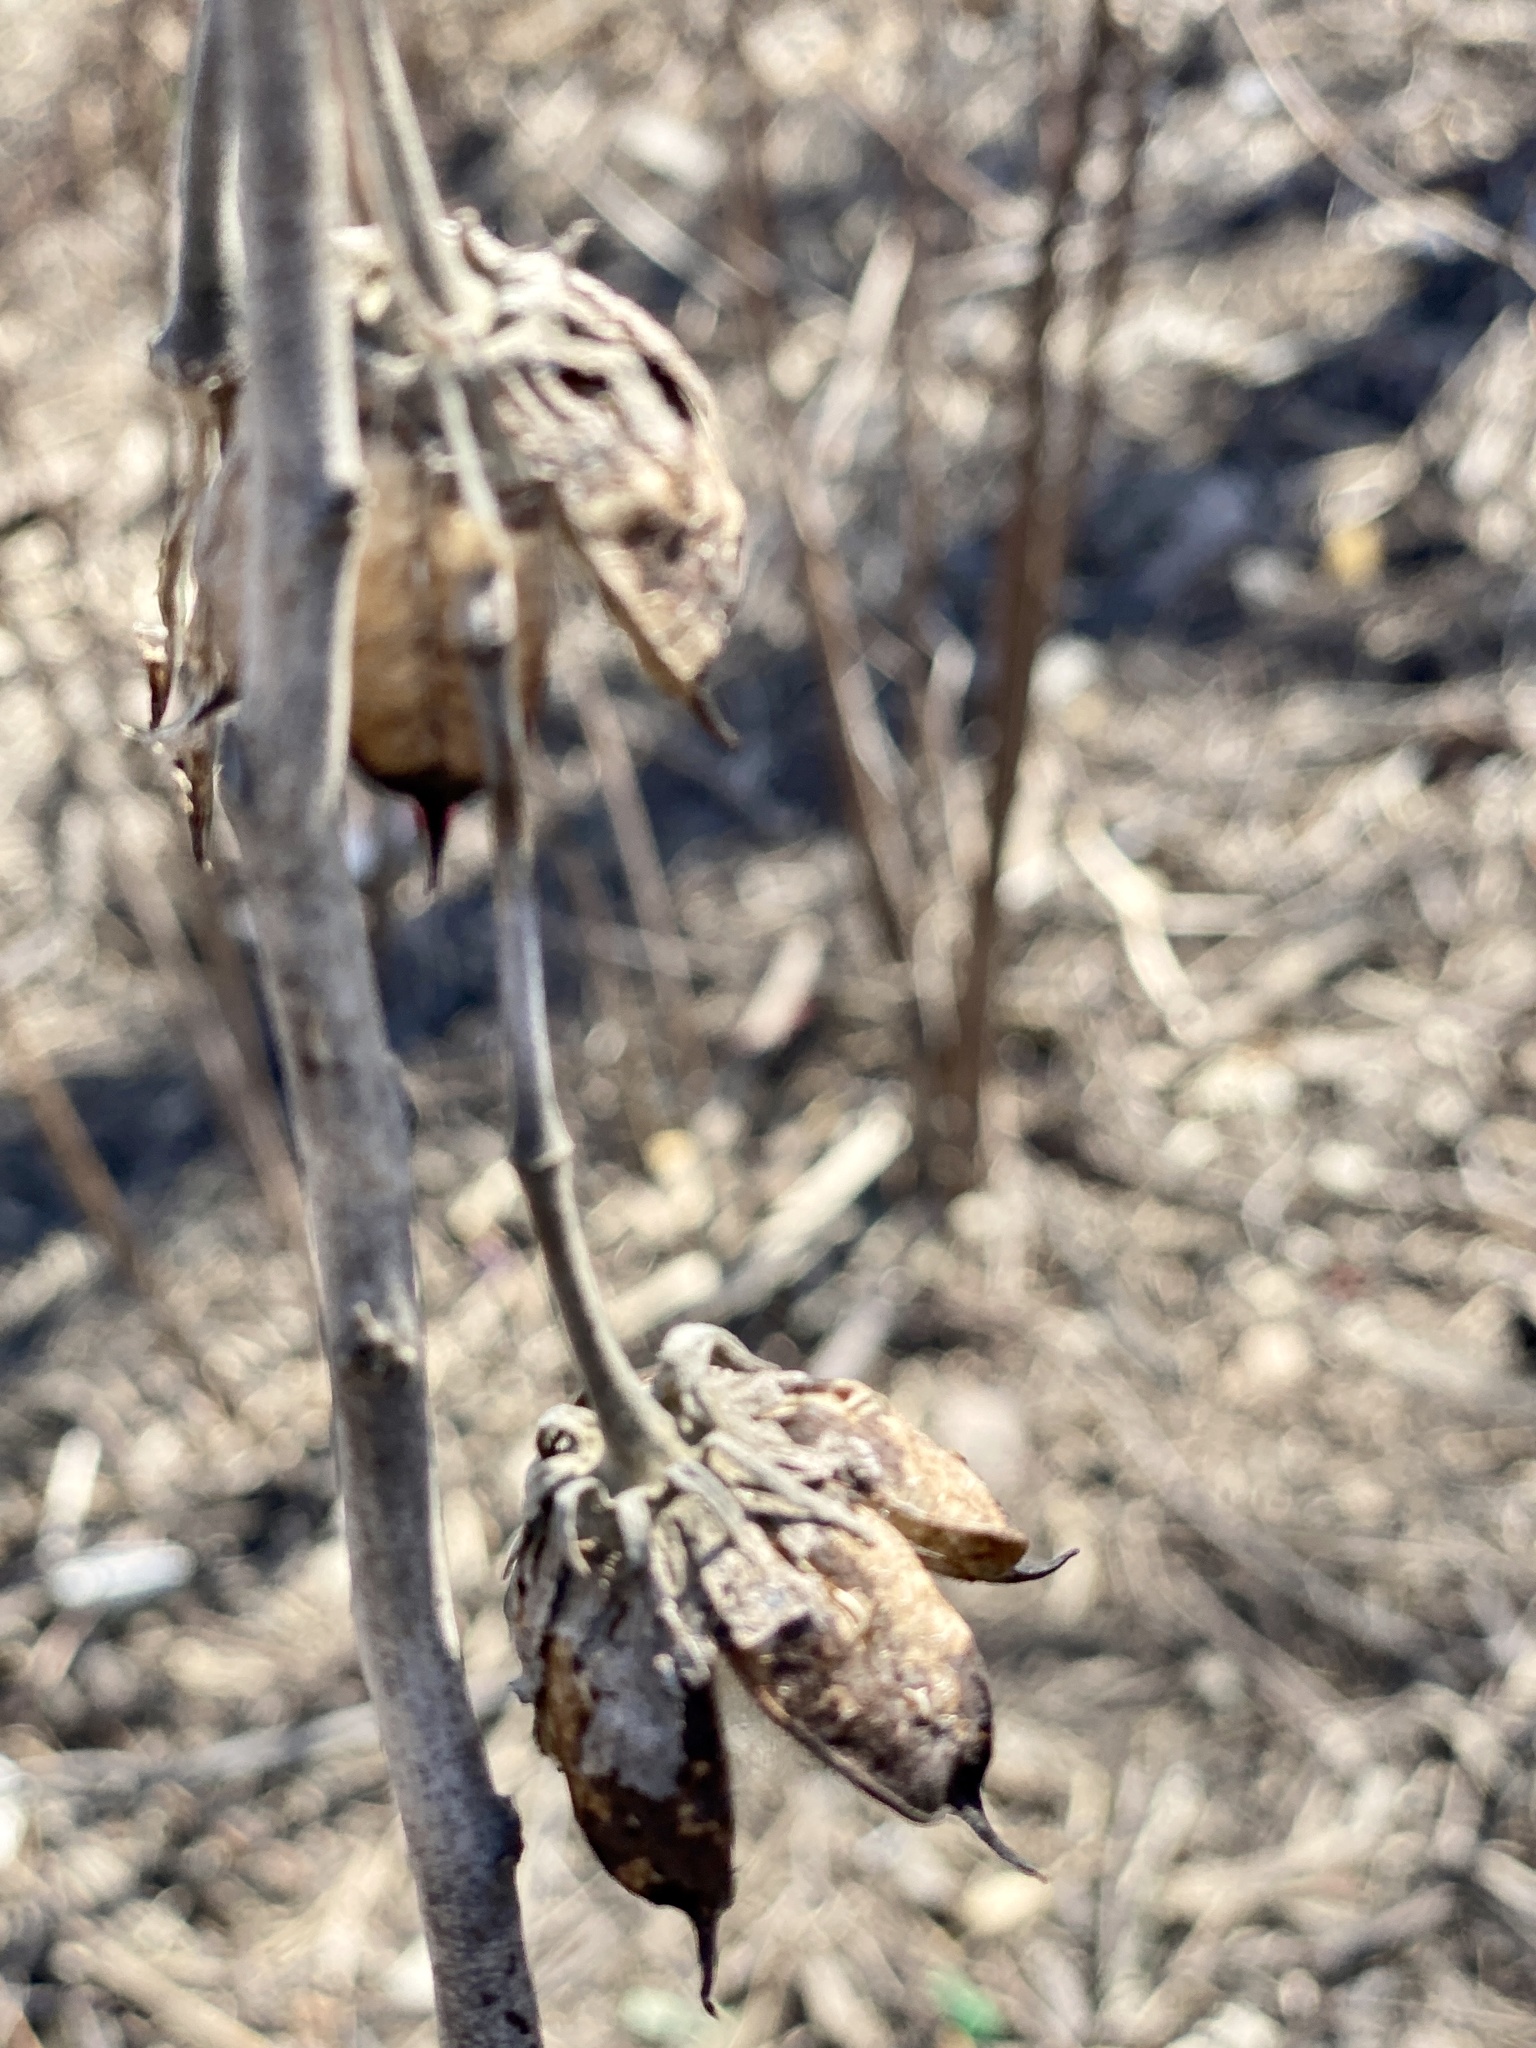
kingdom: Plantae
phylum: Tracheophyta
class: Magnoliopsida
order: Malvales
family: Malvaceae
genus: Hibiscus
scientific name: Hibiscus moscheutos
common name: Common rose-mallow
